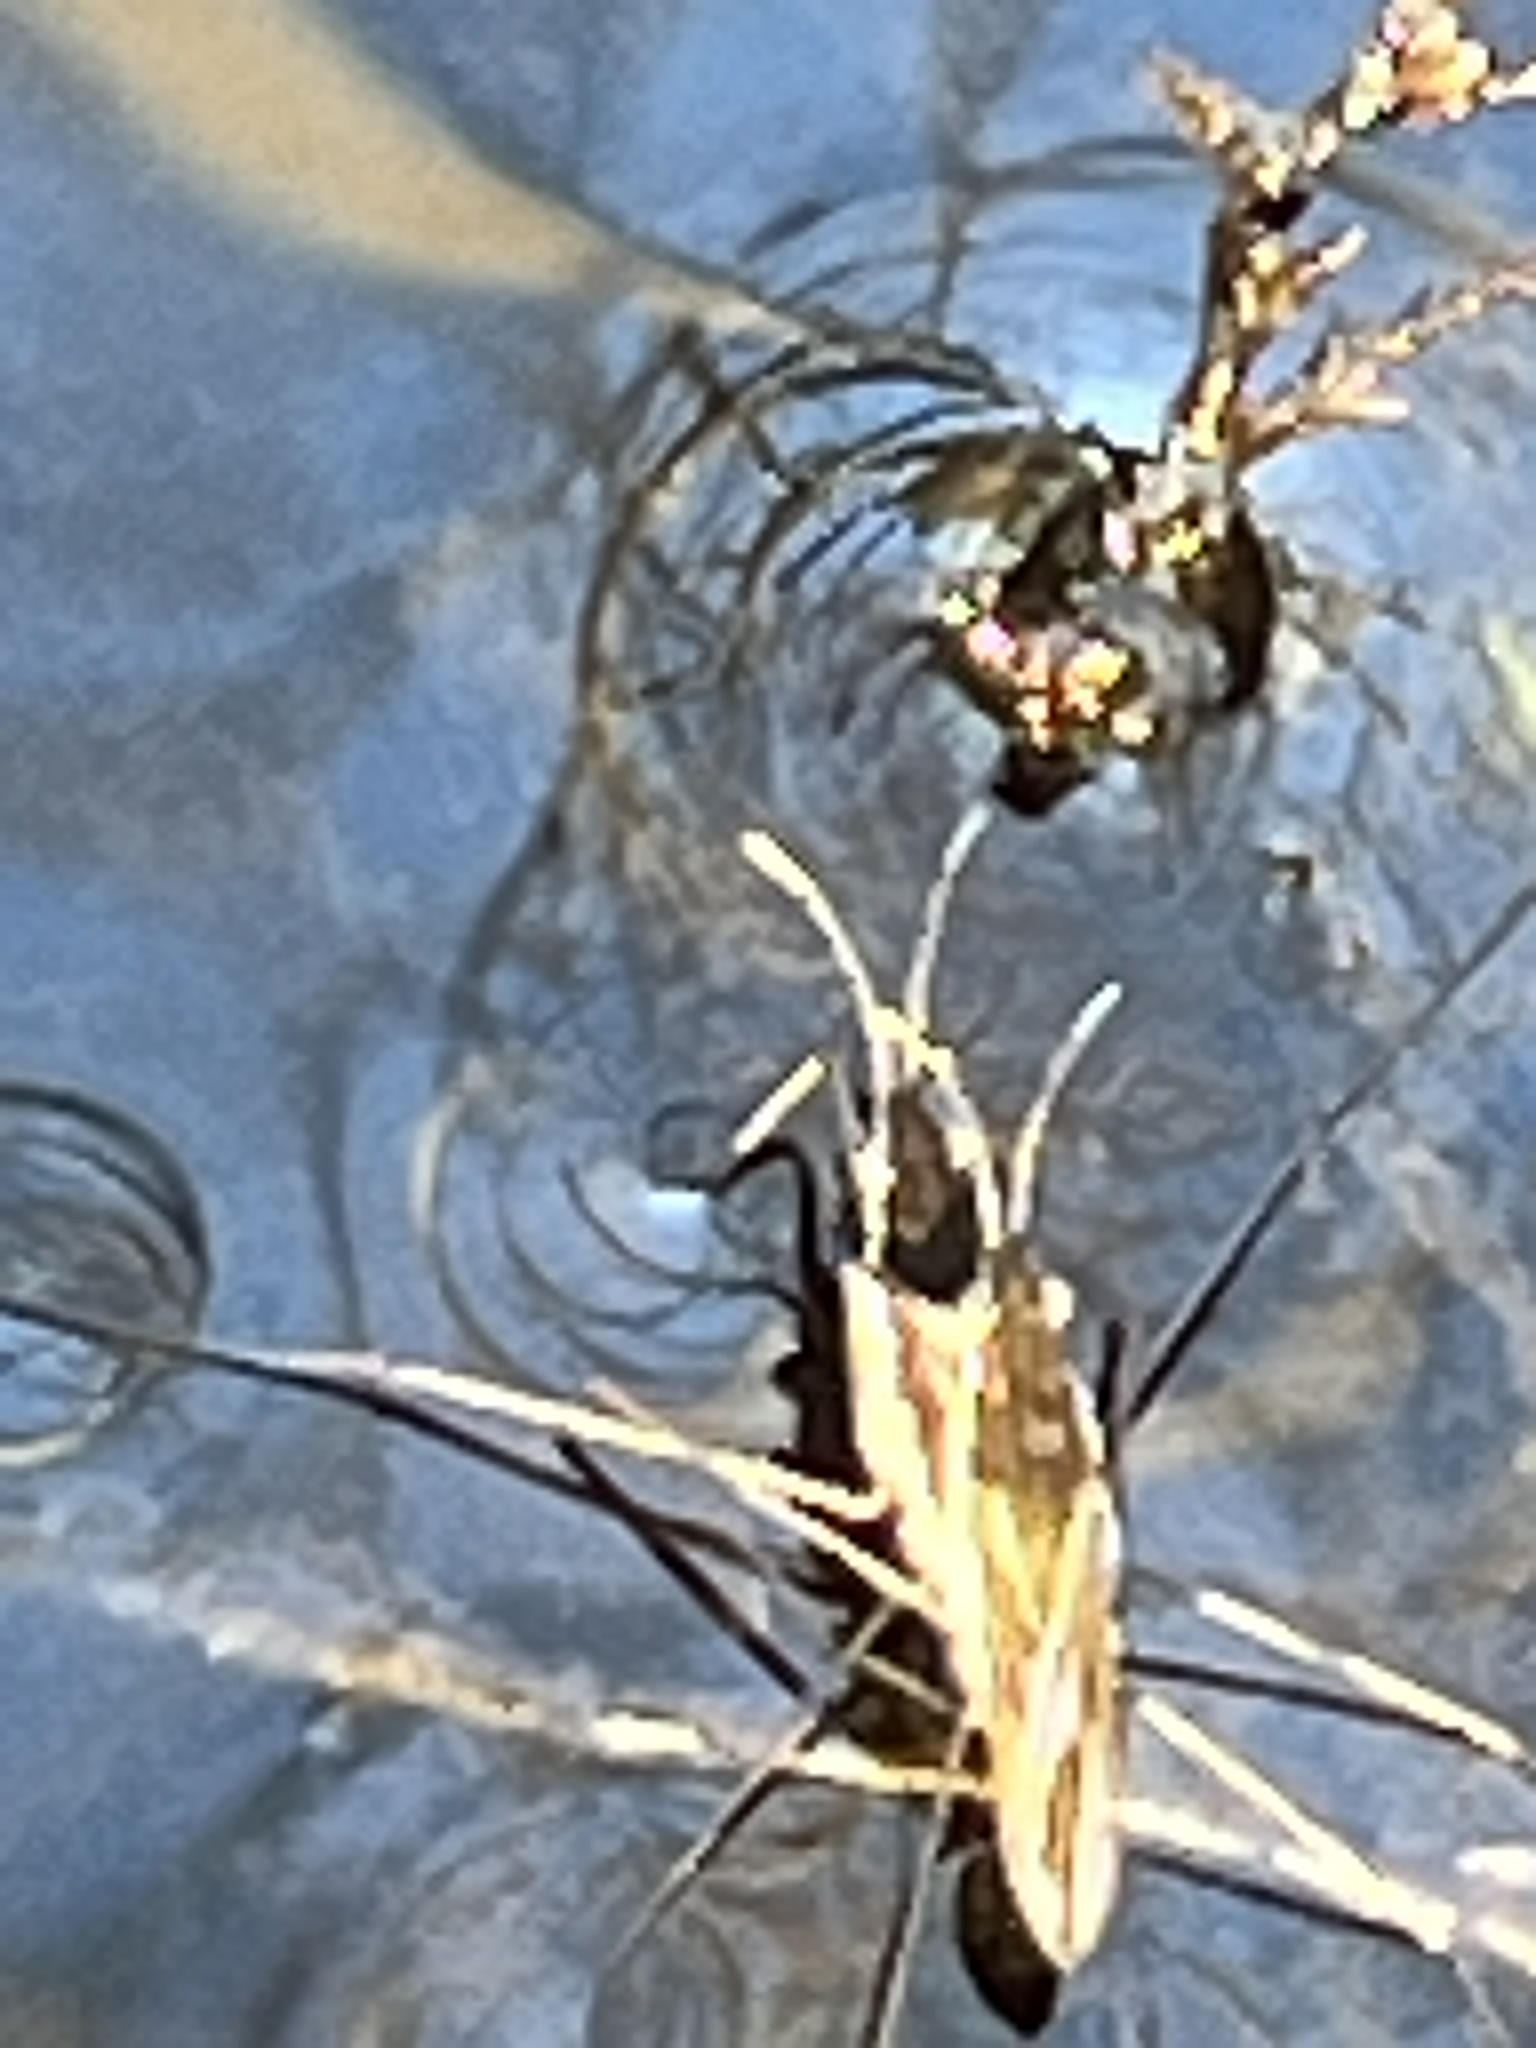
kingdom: Animalia
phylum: Arthropoda
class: Insecta
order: Hemiptera
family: Gerridae
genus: Gerris
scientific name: Gerris
